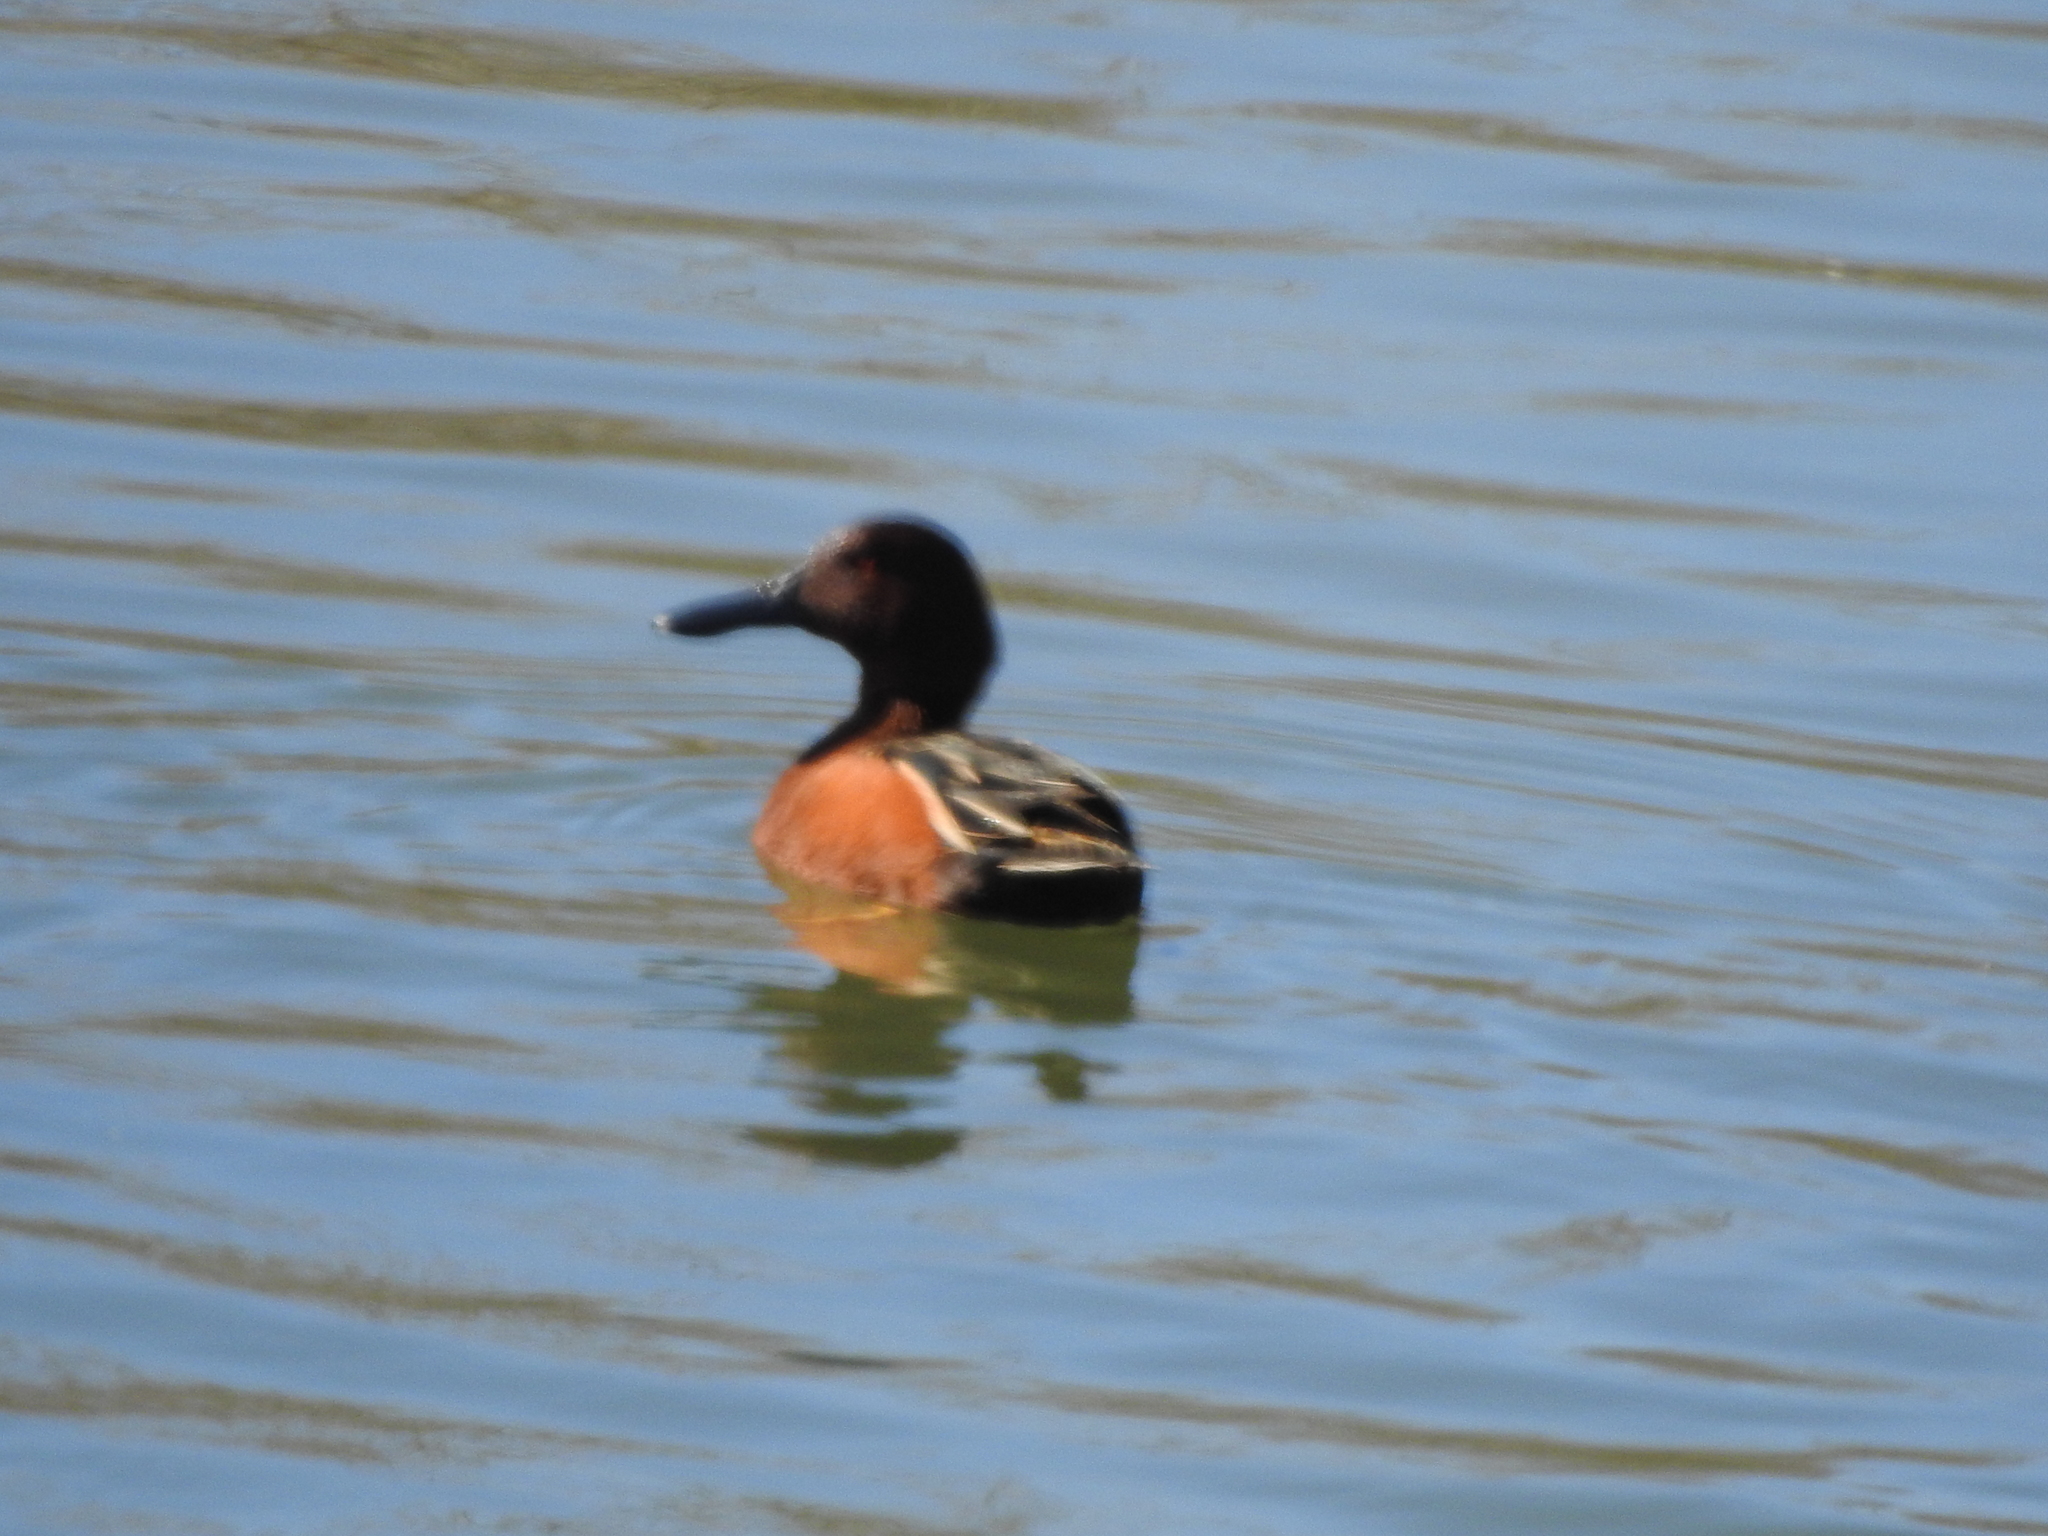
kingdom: Animalia
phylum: Chordata
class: Aves
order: Anseriformes
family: Anatidae
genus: Spatula
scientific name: Spatula cyanoptera
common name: Cinnamon teal
